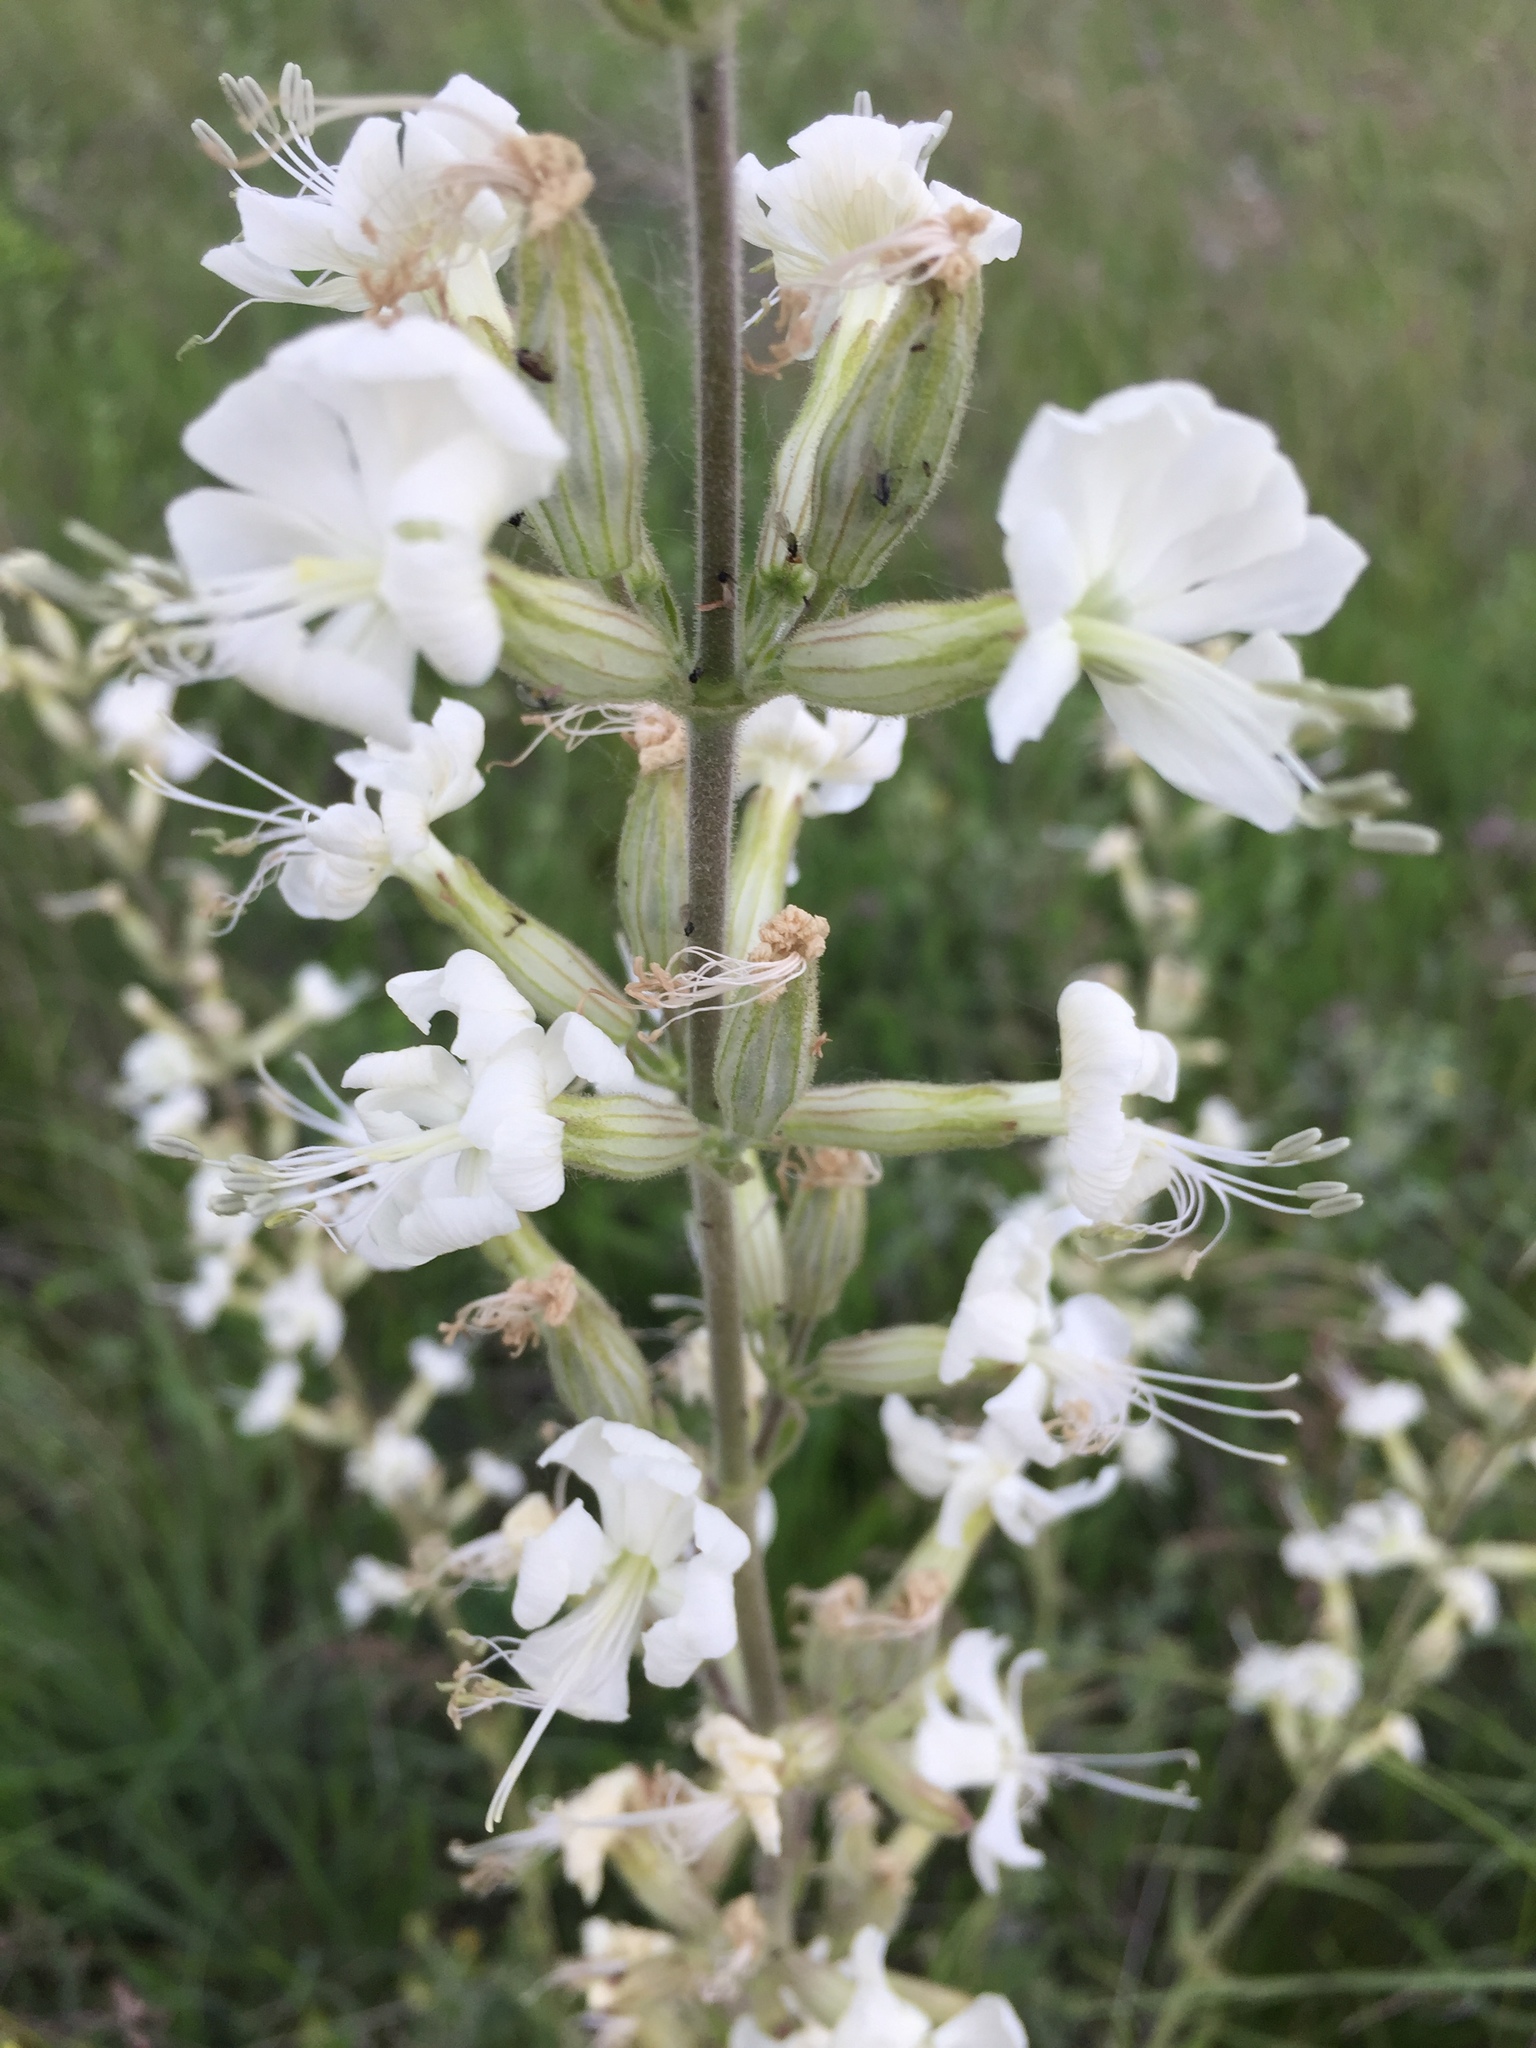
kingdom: Plantae
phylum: Tracheophyta
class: Magnoliopsida
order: Caryophyllales
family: Caryophyllaceae
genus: Silene
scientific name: Silene viscosa
